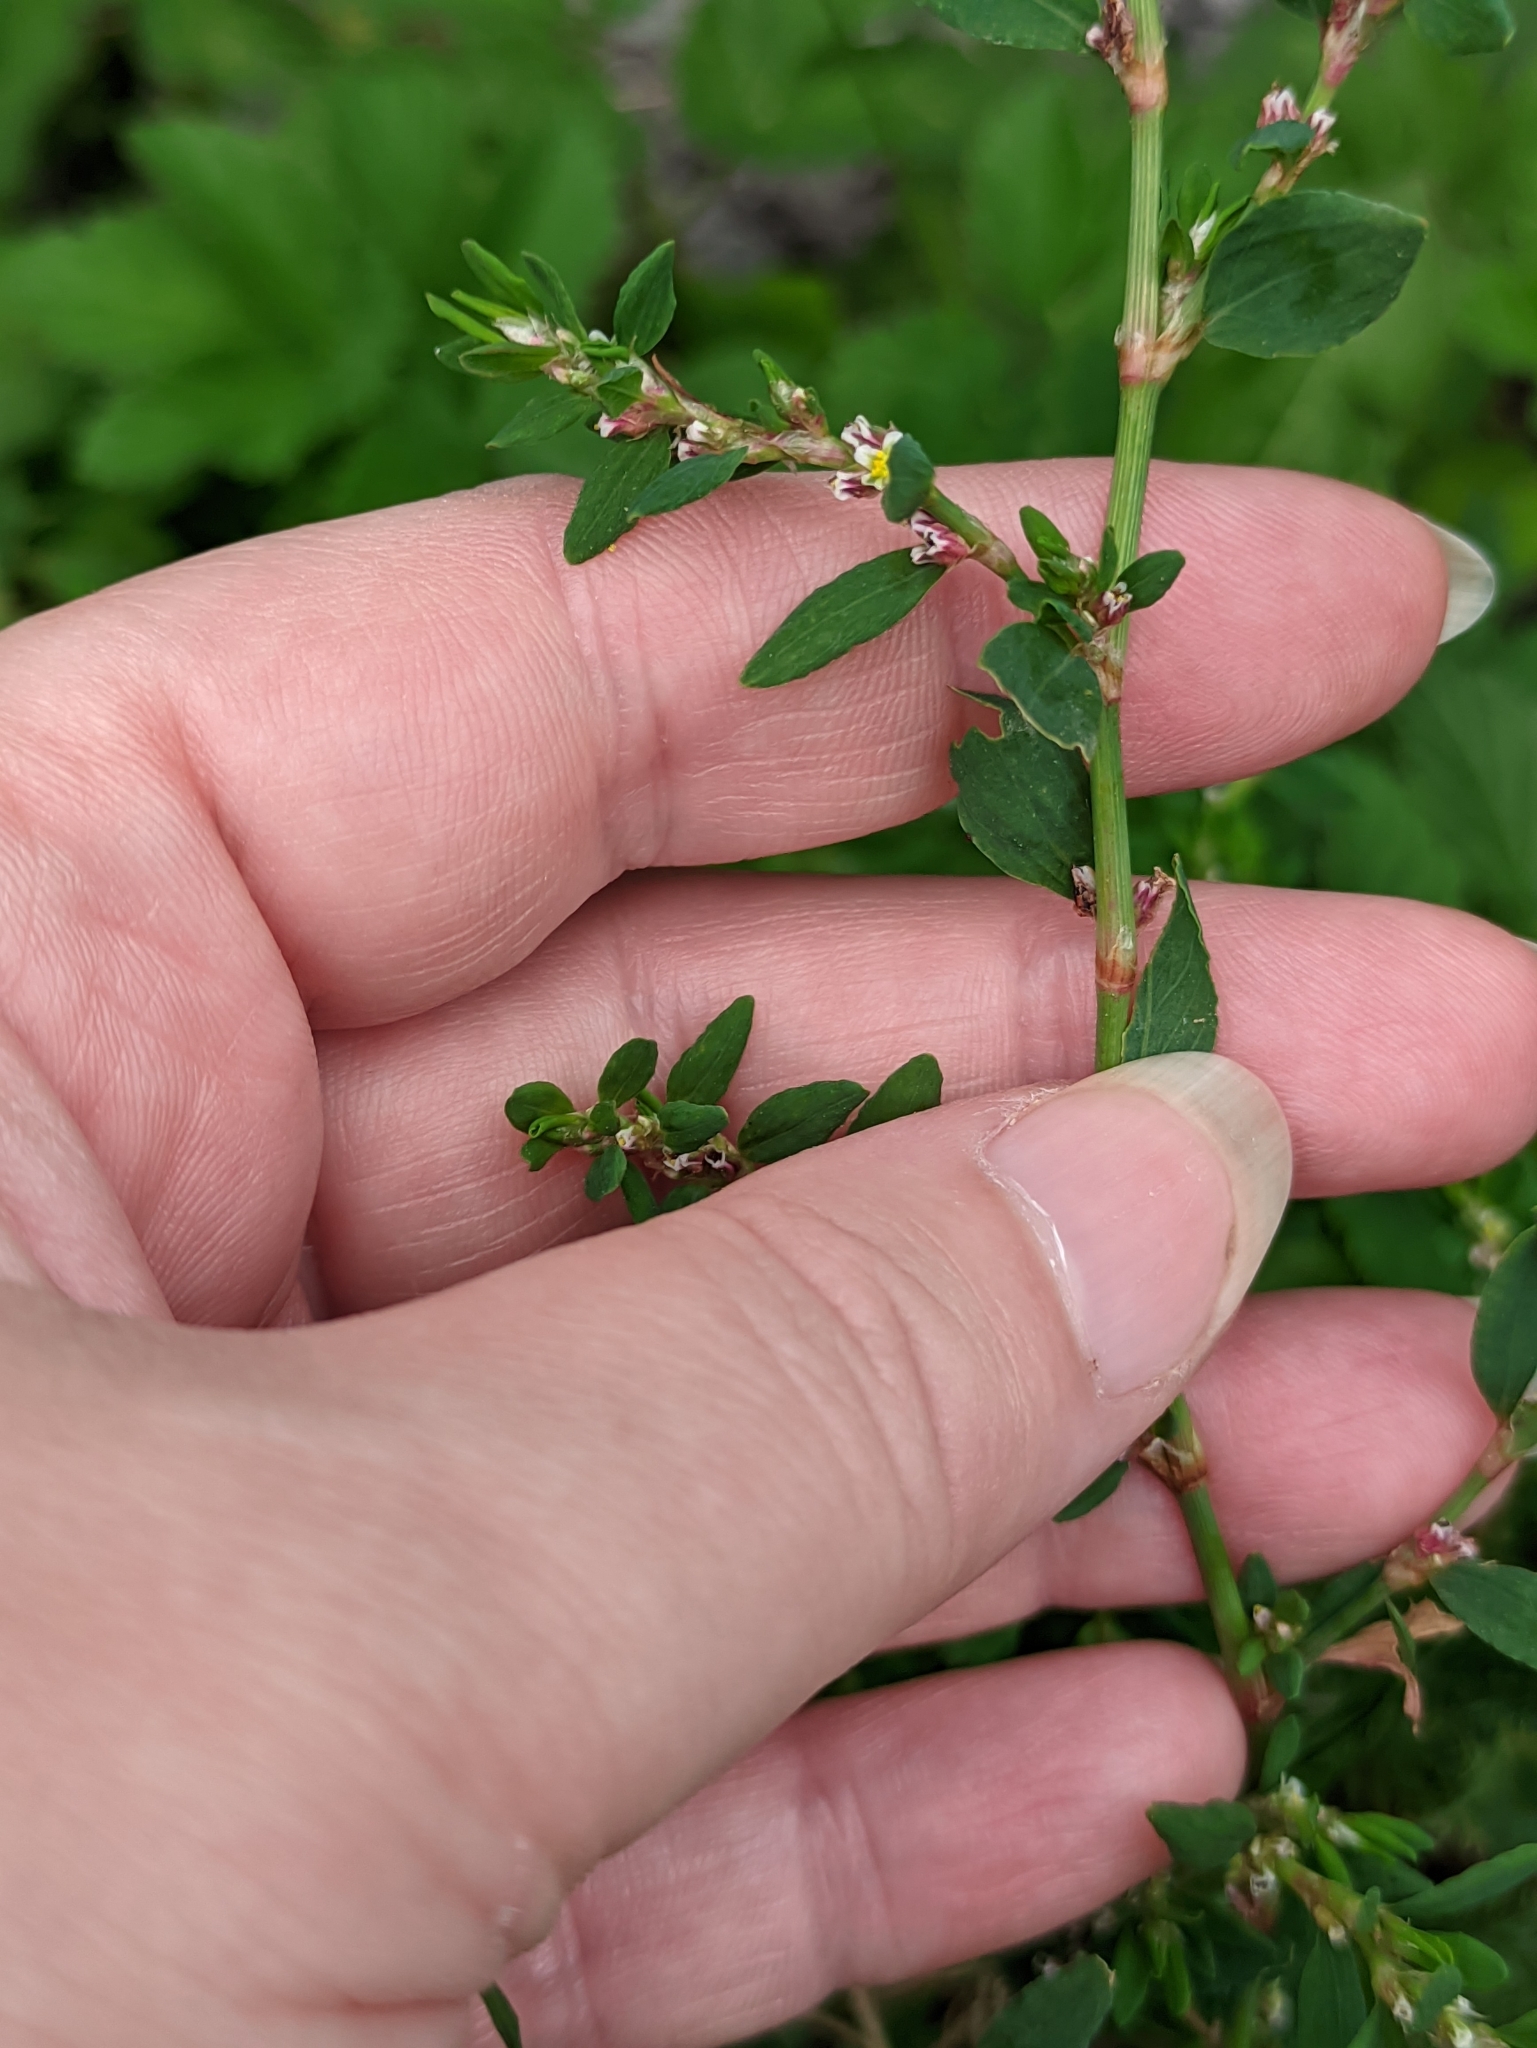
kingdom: Plantae
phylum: Tracheophyta
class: Magnoliopsida
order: Caryophyllales
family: Polygonaceae
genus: Polygonum
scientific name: Polygonum
